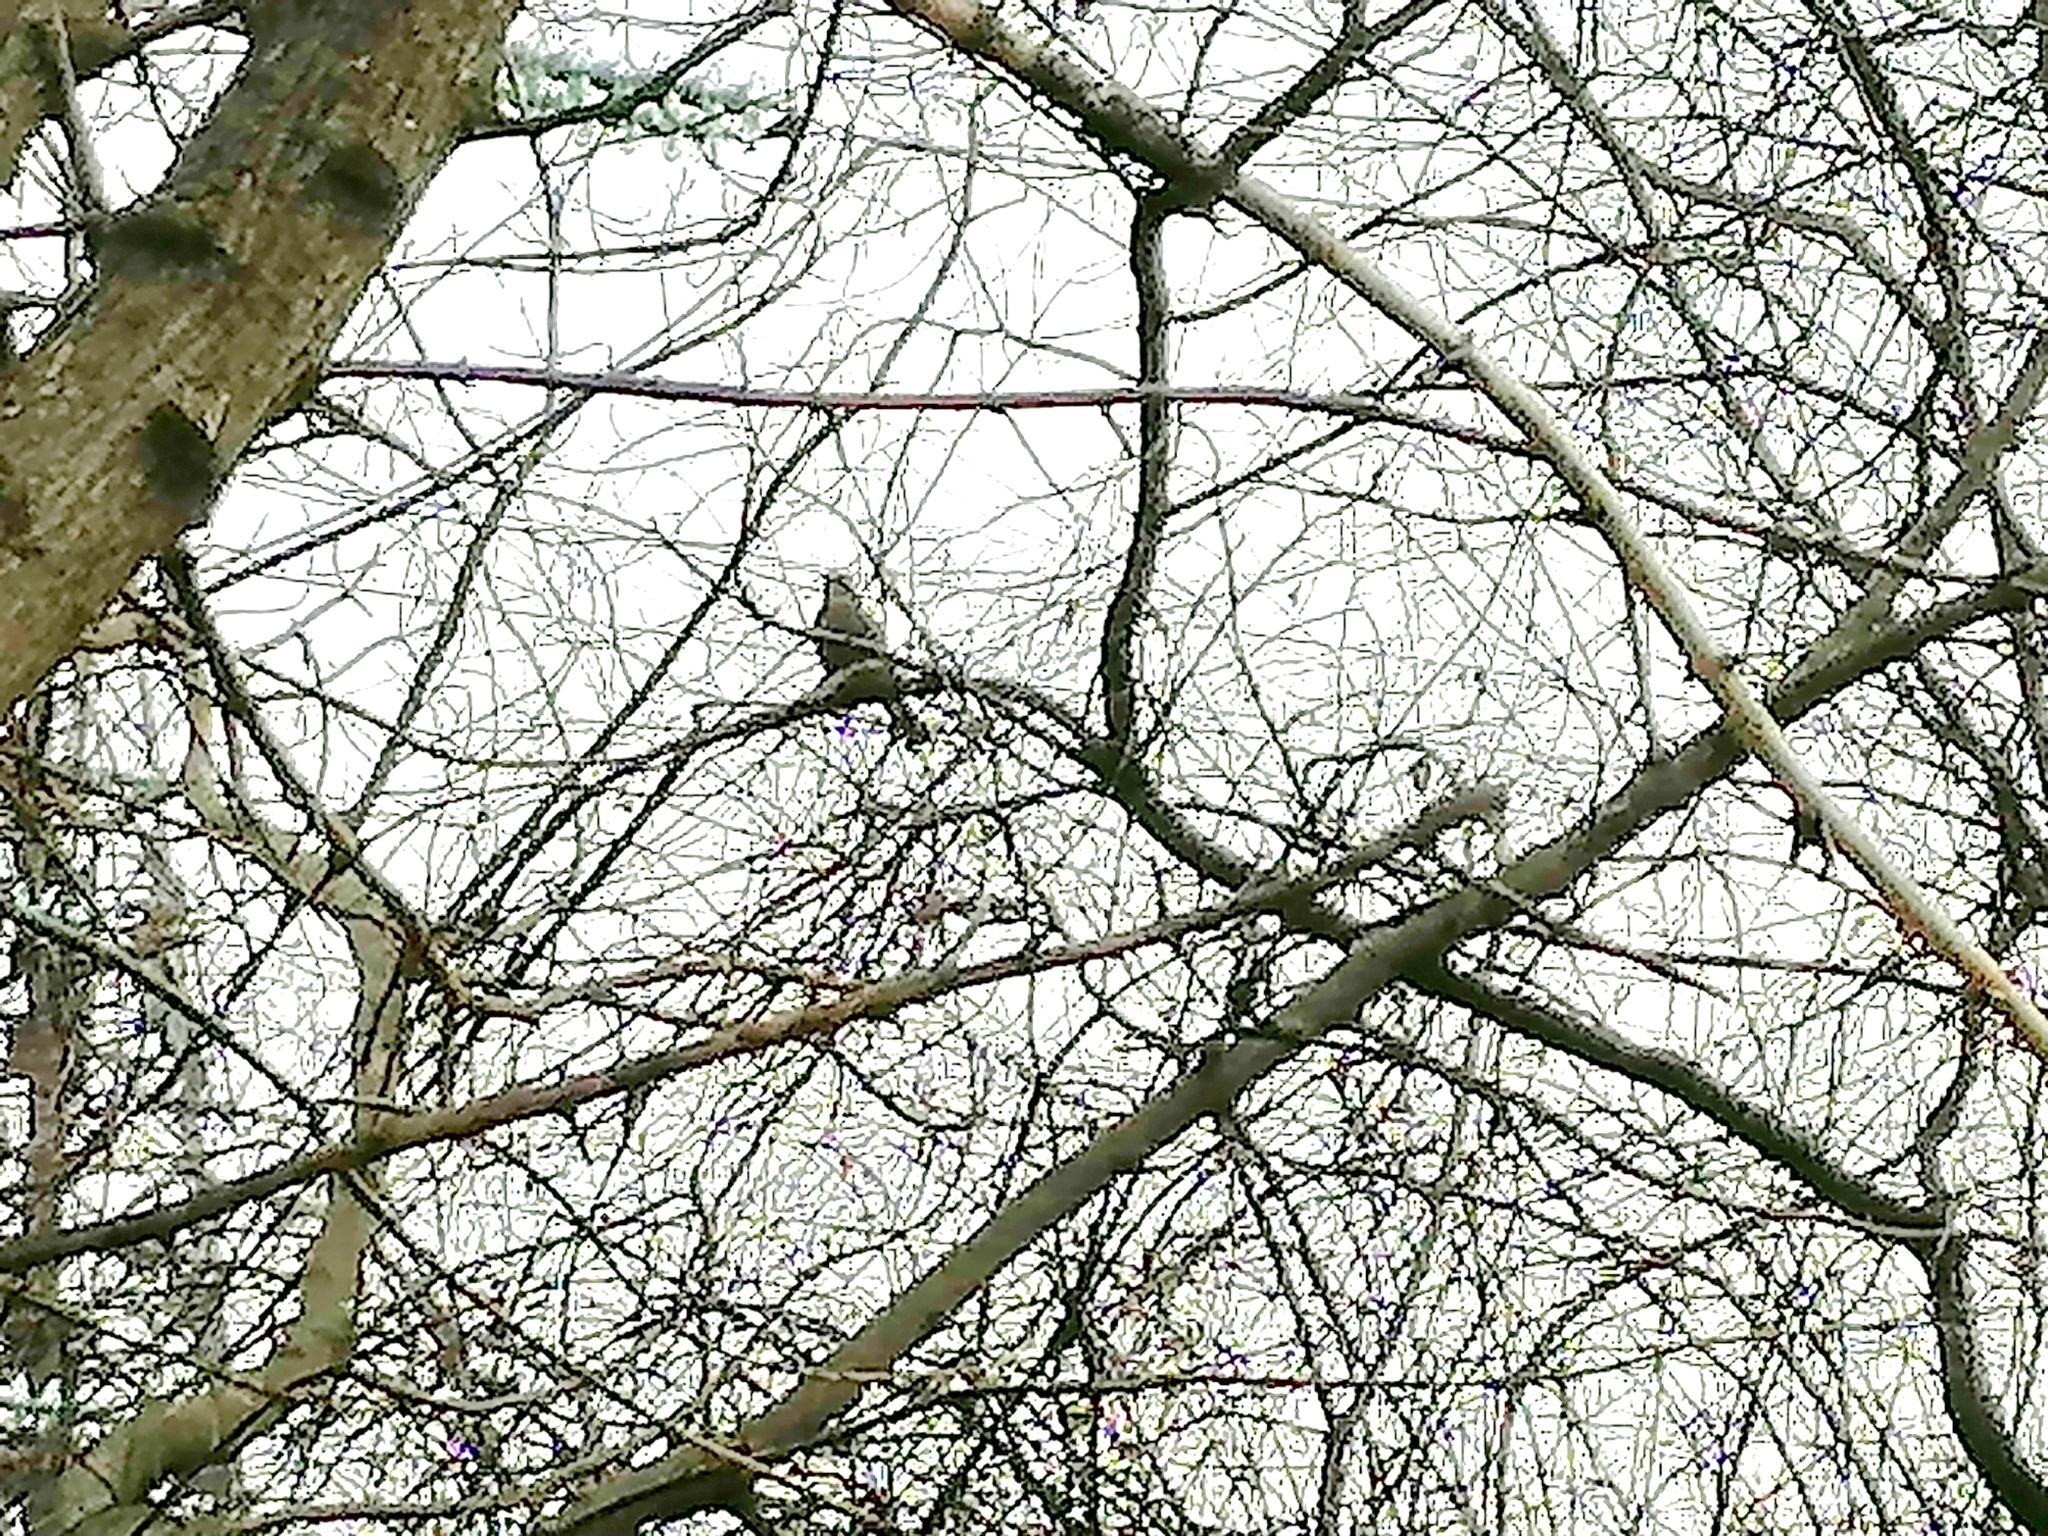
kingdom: Animalia
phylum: Chordata
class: Aves
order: Passeriformes
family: Corvidae
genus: Garrulus
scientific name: Garrulus glandarius
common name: Eurasian jay
